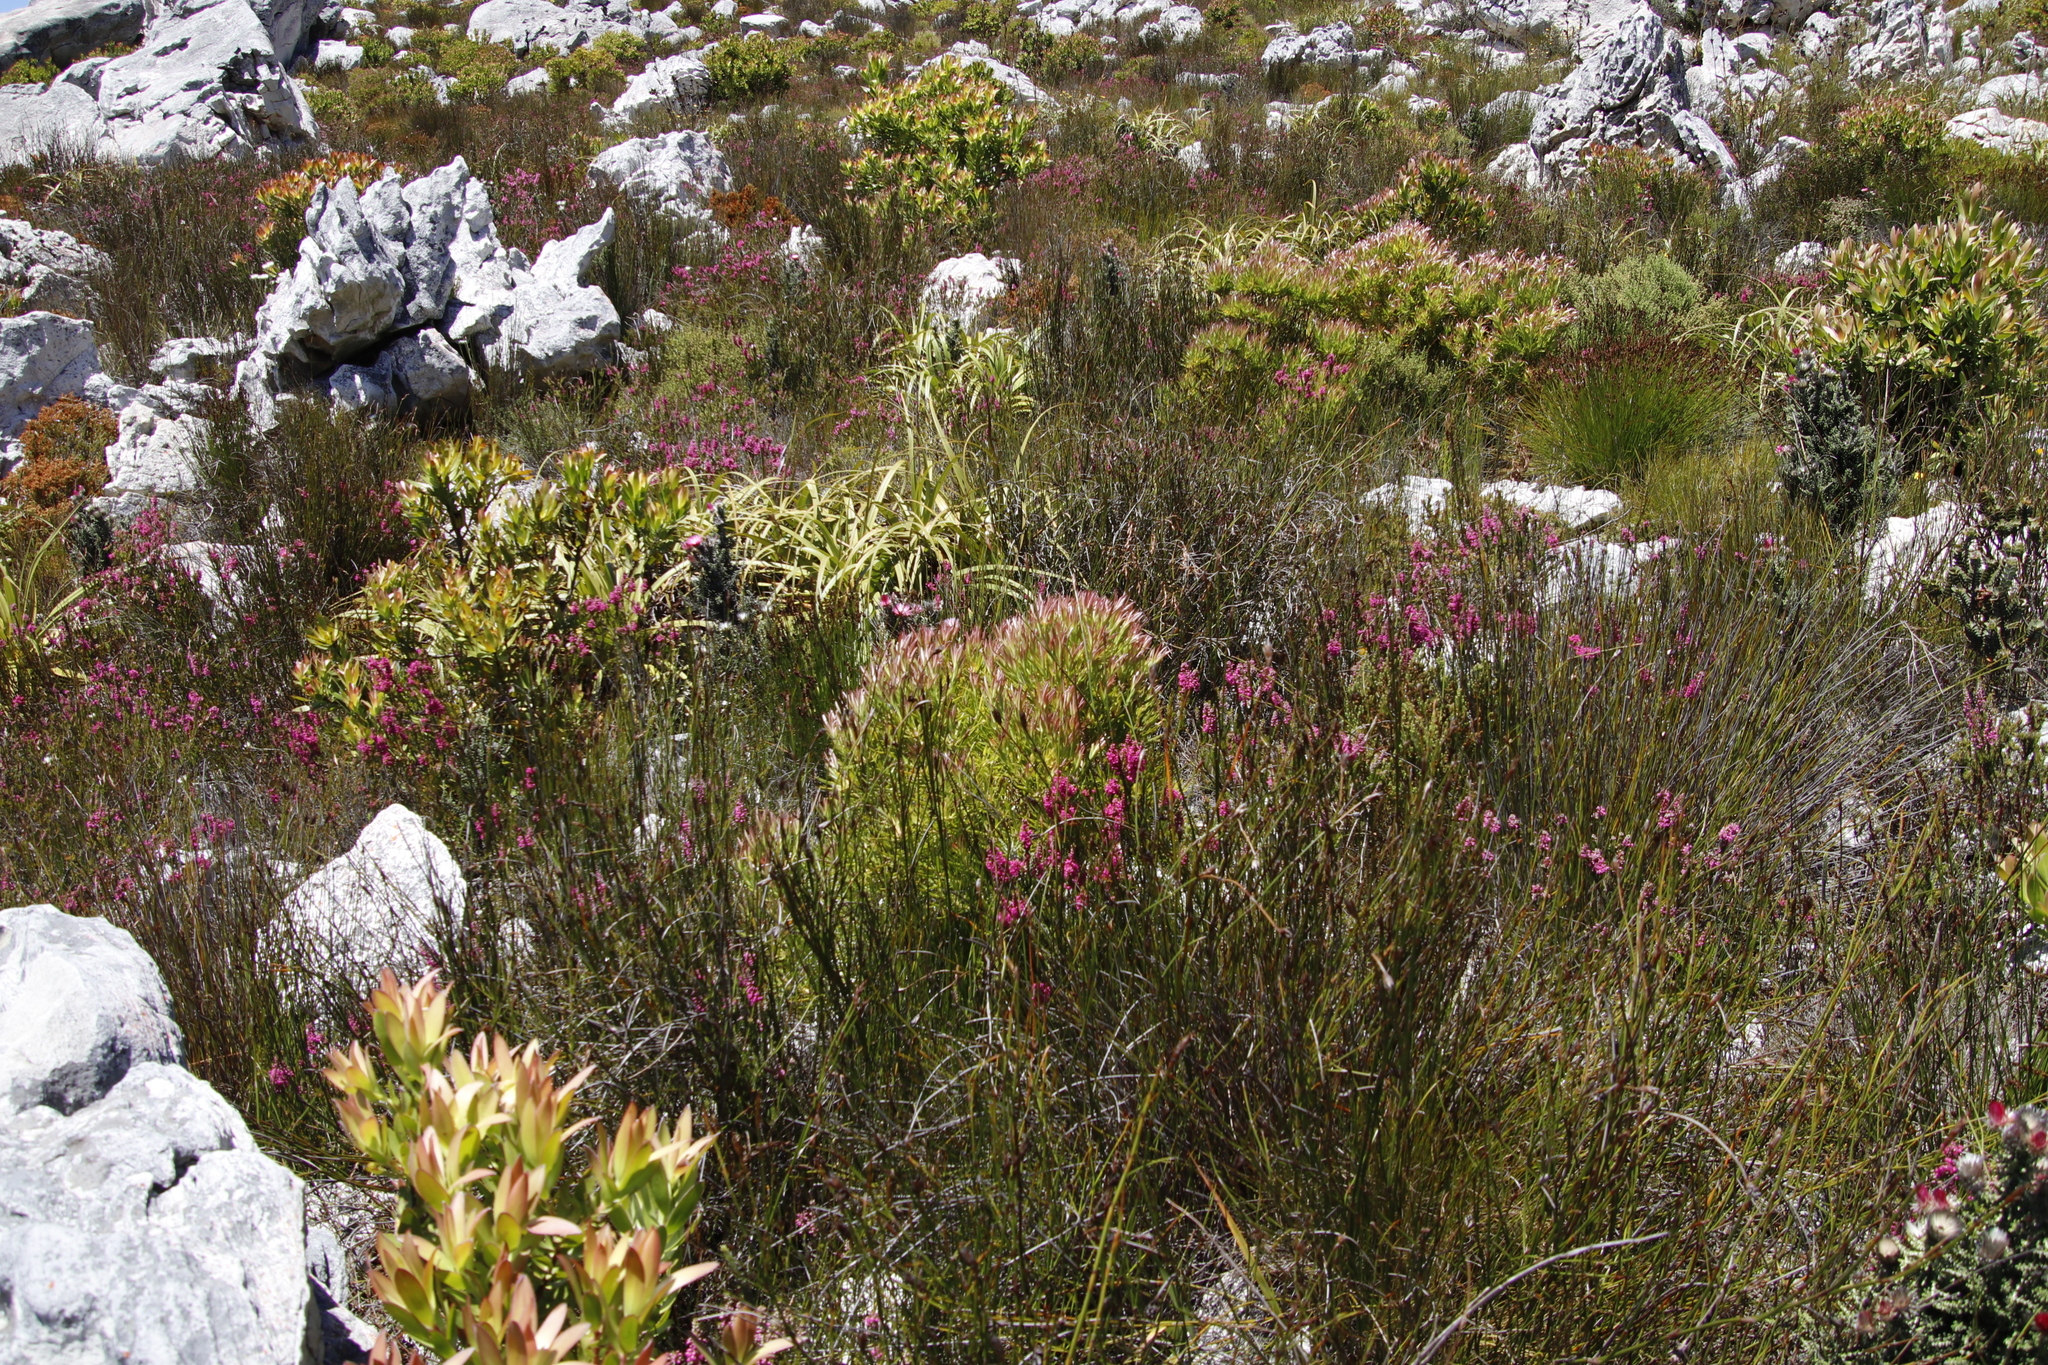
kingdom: Plantae
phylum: Tracheophyta
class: Magnoliopsida
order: Proteales
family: Proteaceae
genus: Leucadendron
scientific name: Leucadendron xanthoconus
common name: Sickle-leaf conebush
